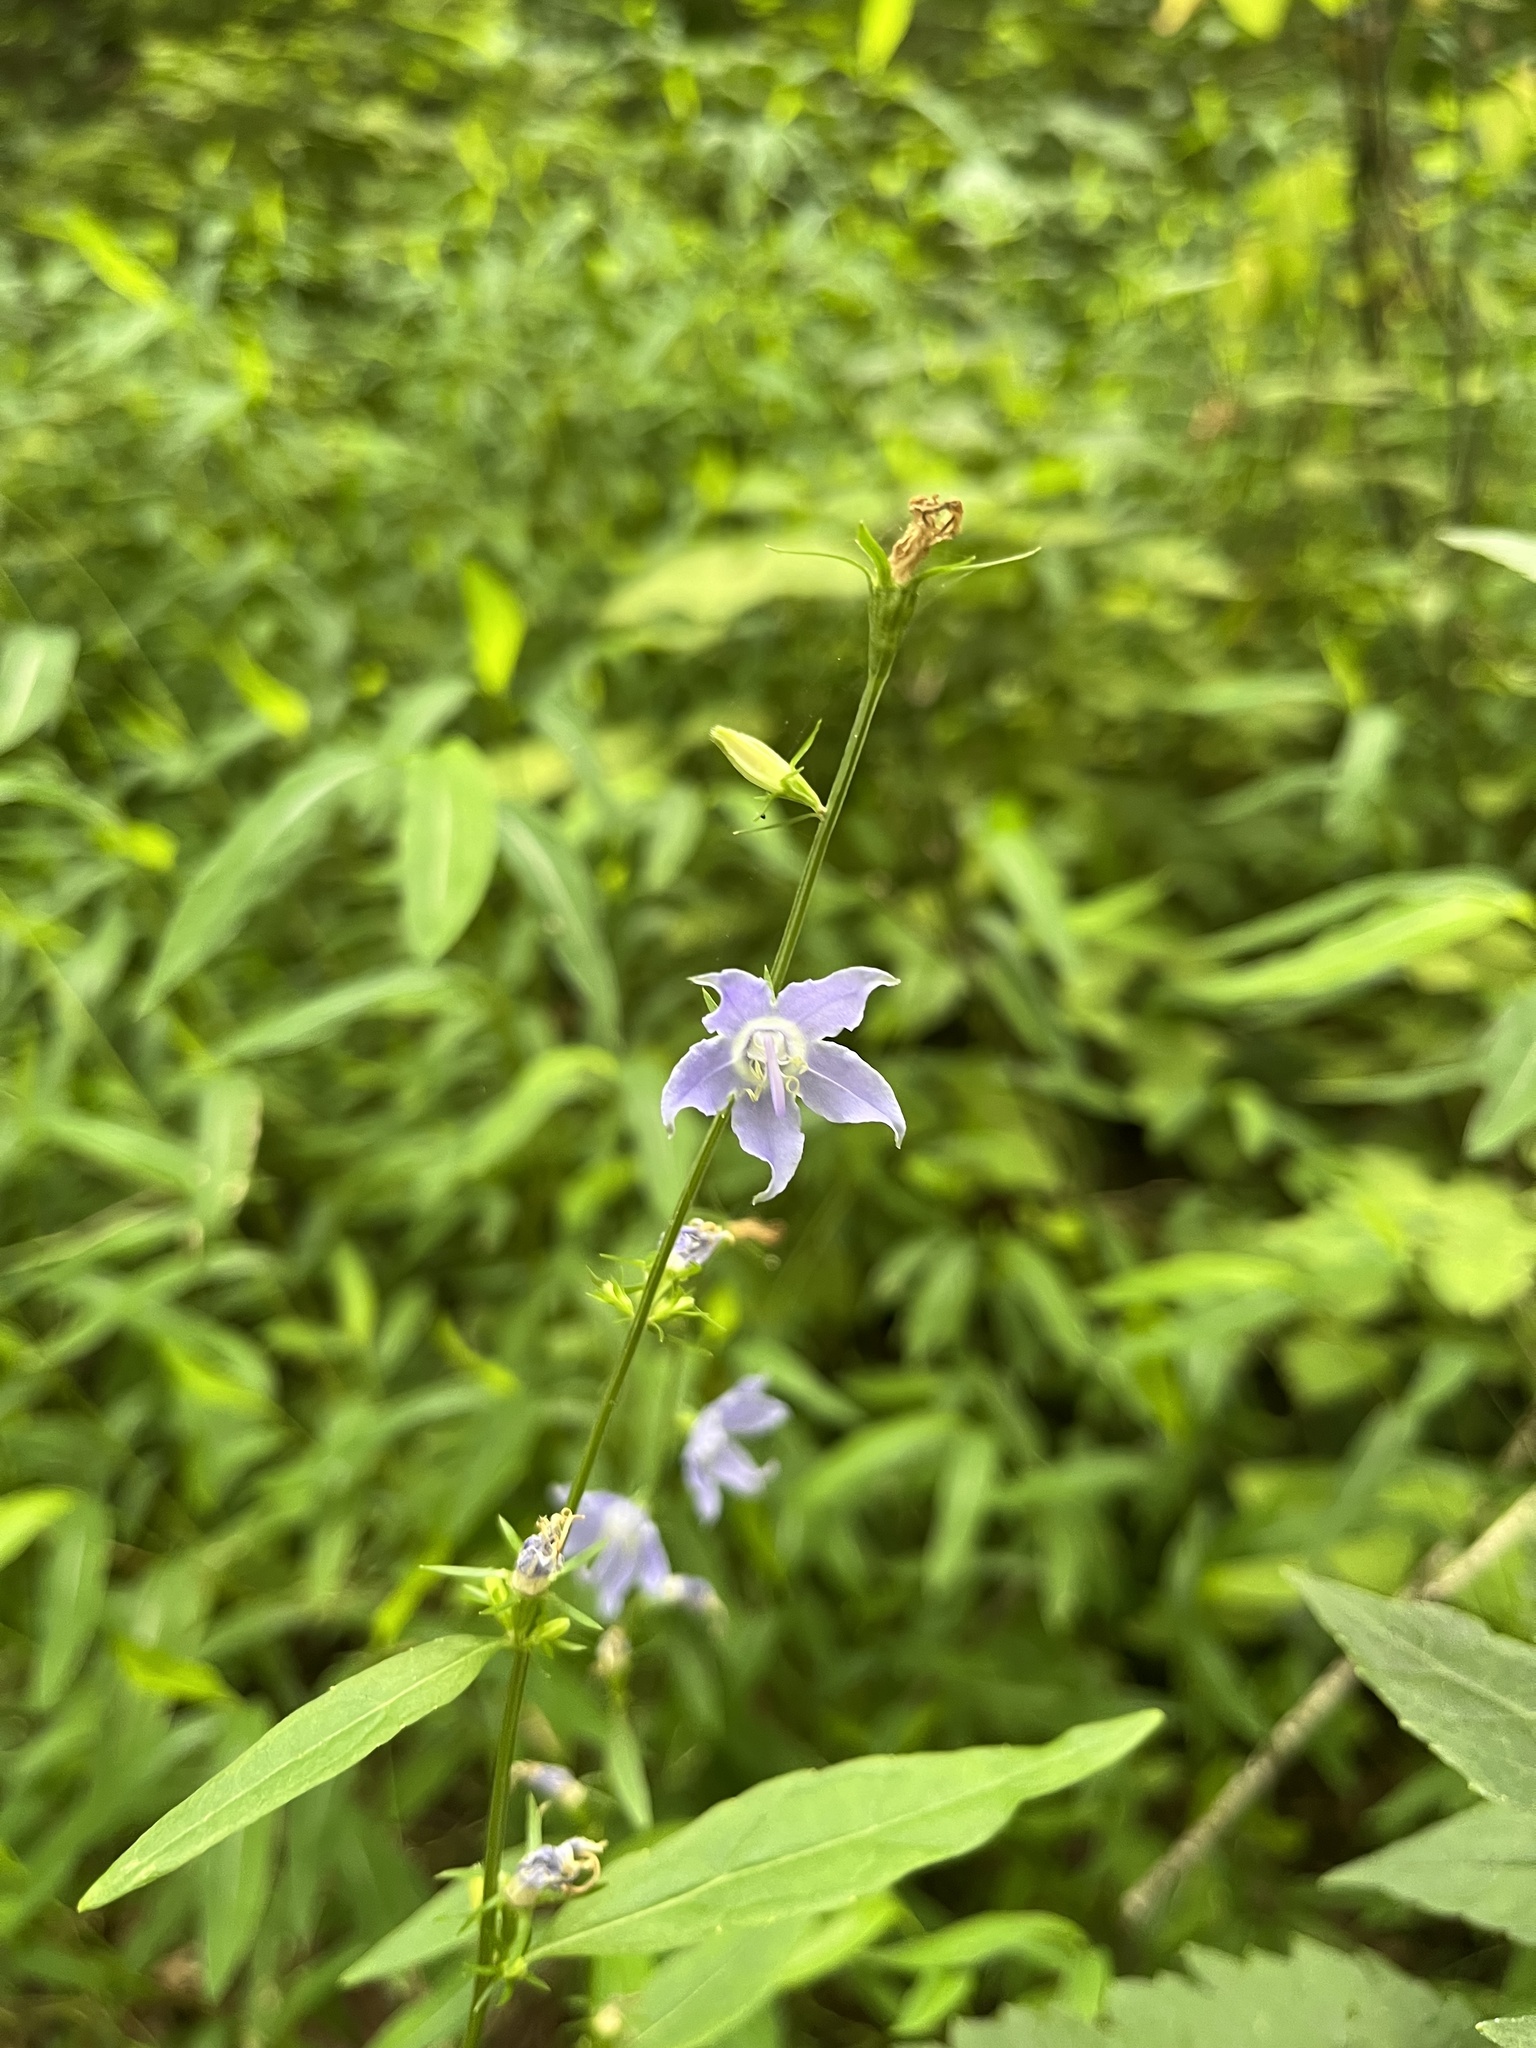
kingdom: Plantae
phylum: Tracheophyta
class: Magnoliopsida
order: Asterales
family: Campanulaceae
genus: Campanulastrum
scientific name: Campanulastrum americanum
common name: American bellflower
